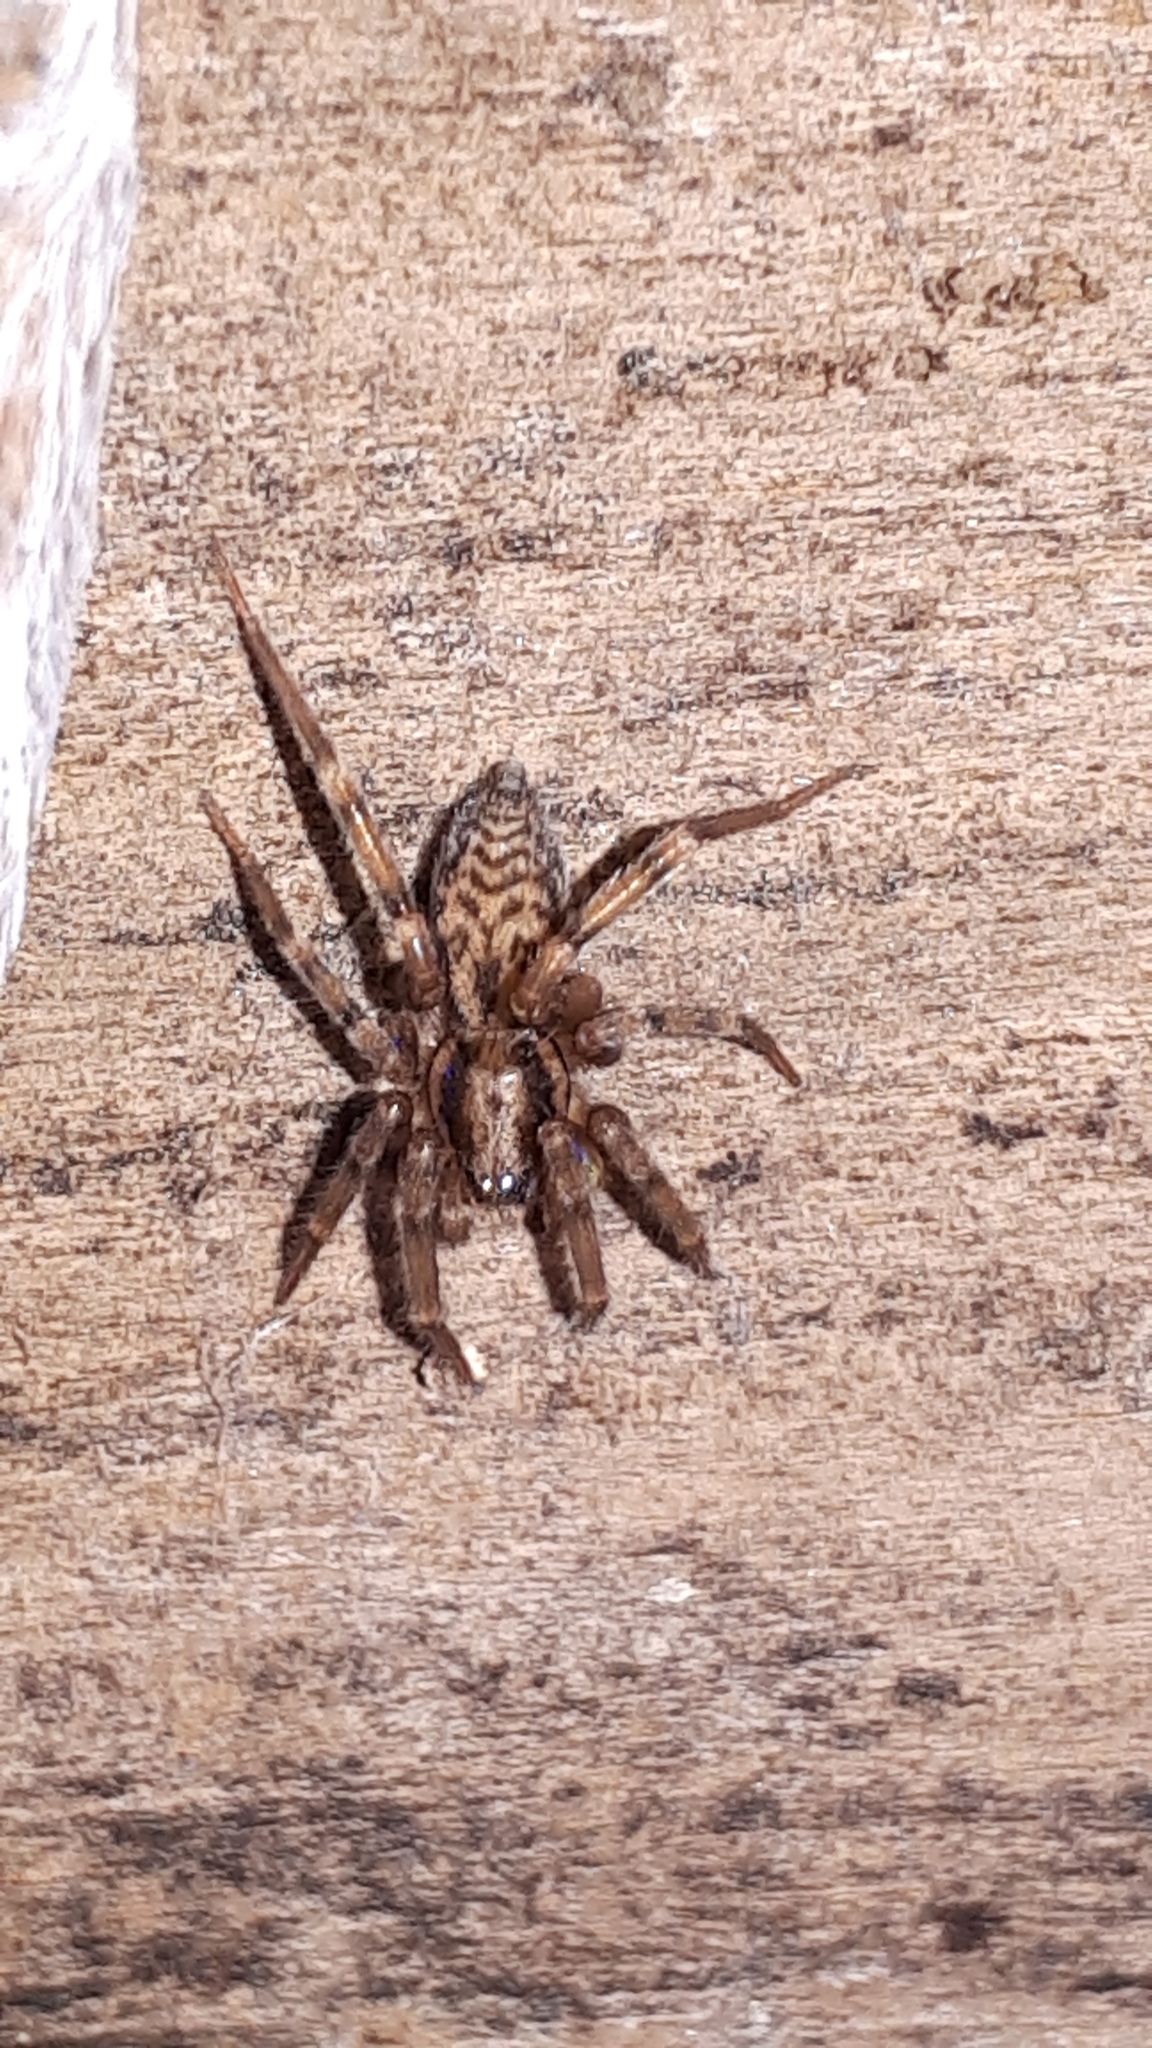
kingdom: Animalia
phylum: Arthropoda
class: Arachnida
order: Araneae
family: Liocranidae
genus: Liocranum
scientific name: Liocranum rupicola
